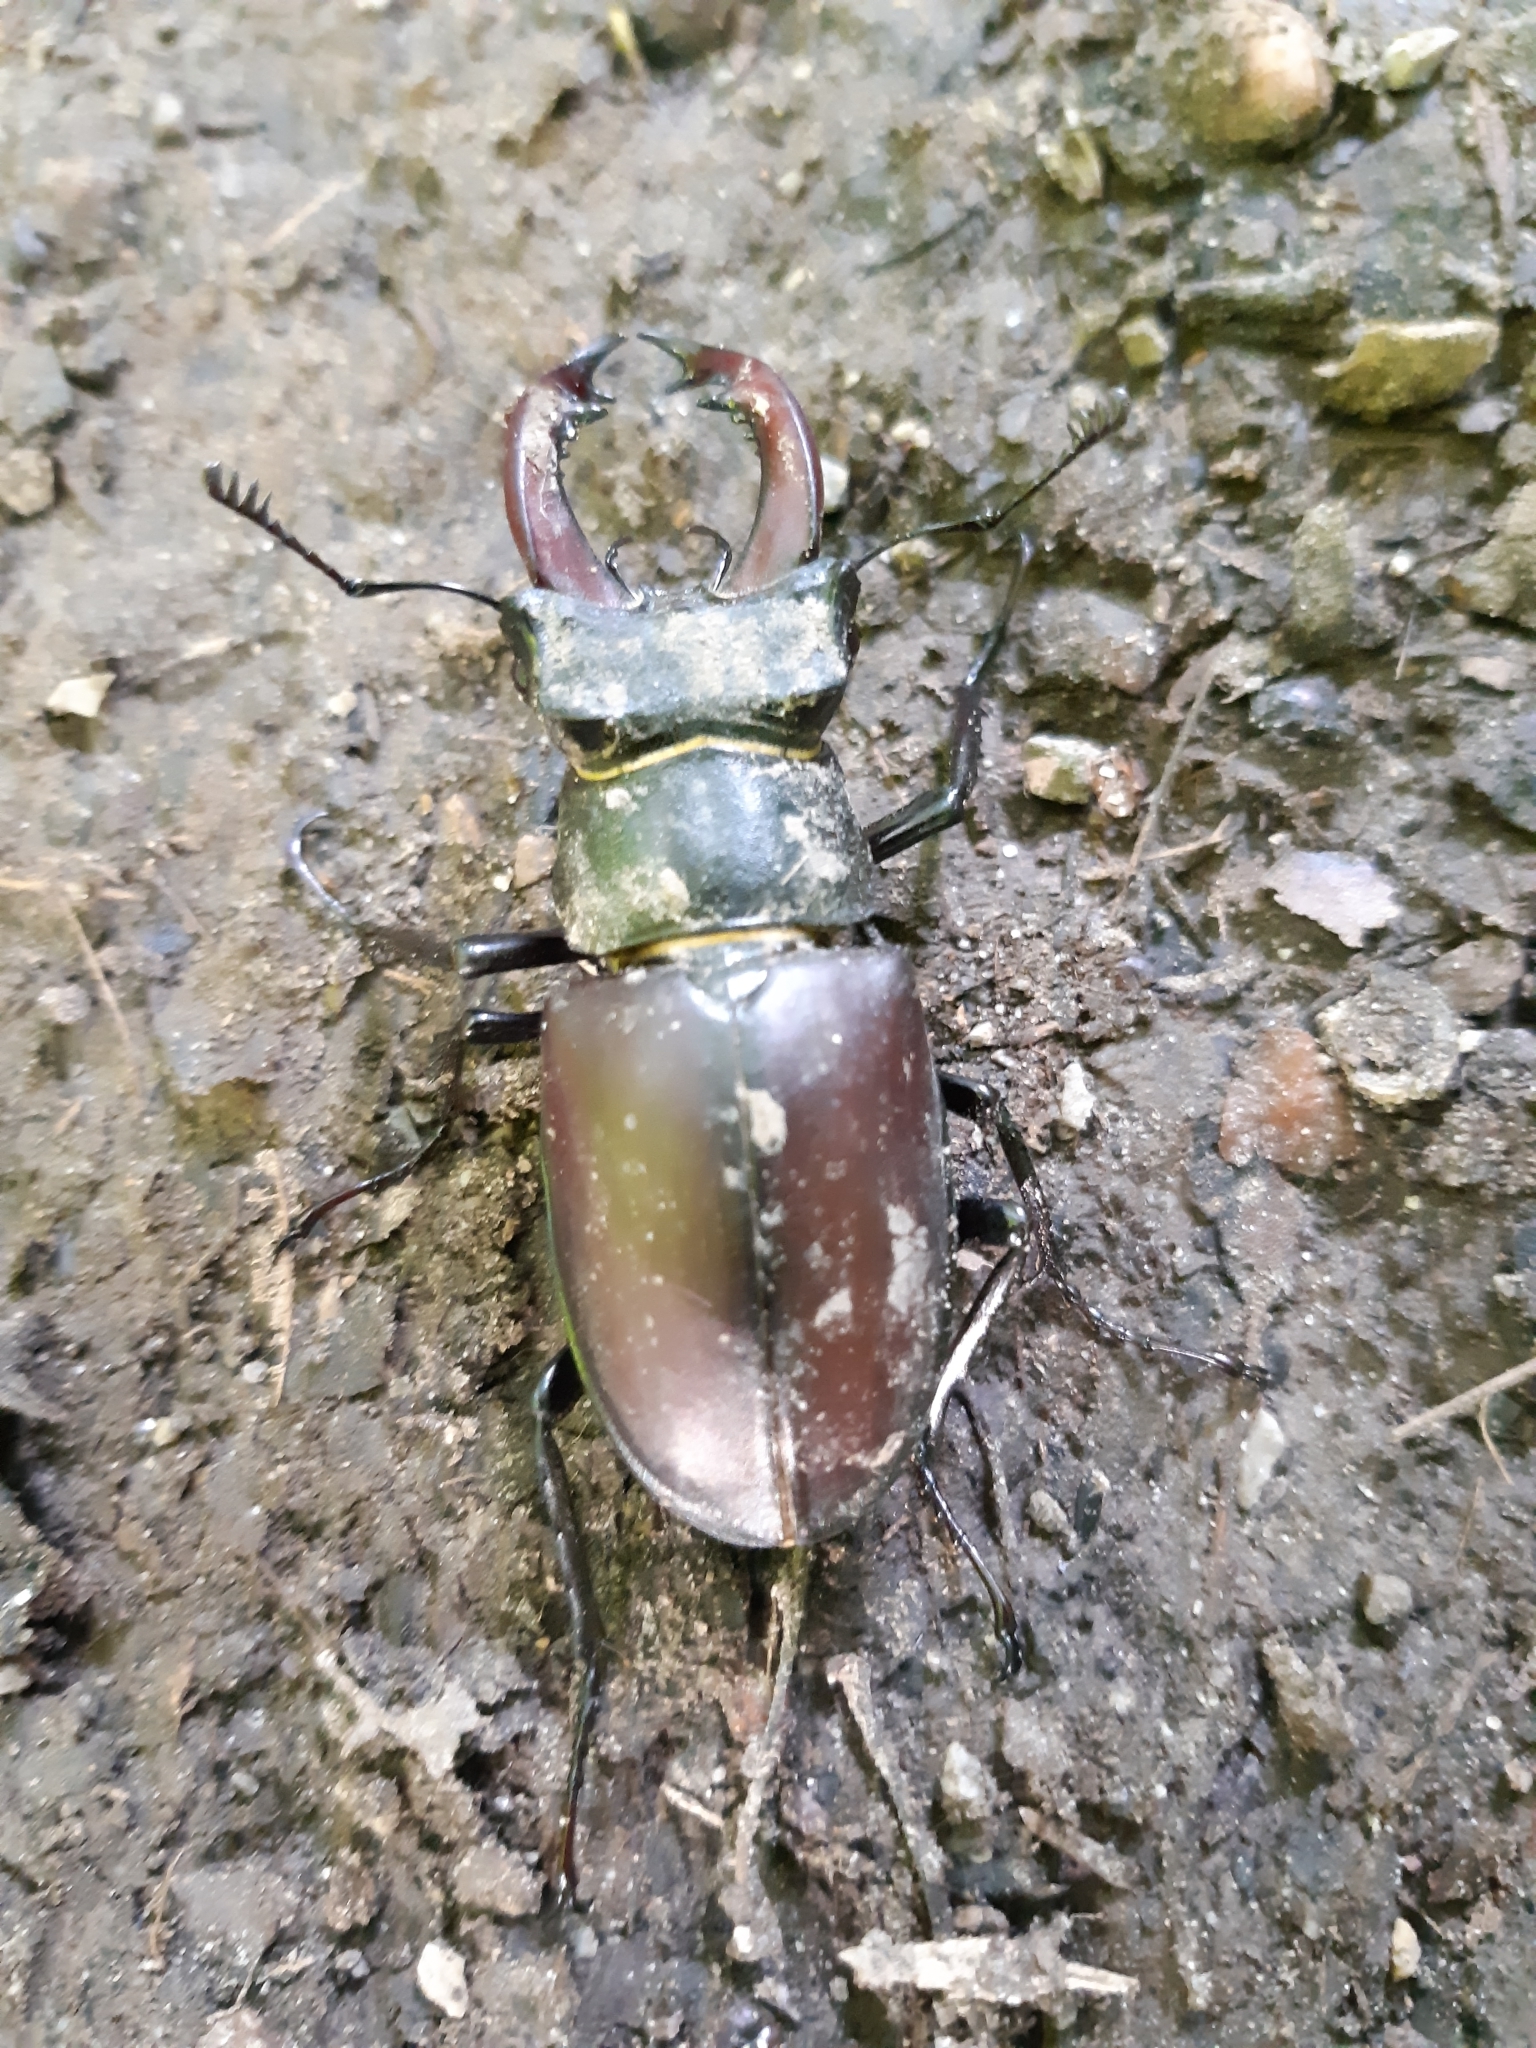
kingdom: Animalia
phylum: Arthropoda
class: Insecta
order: Coleoptera
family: Lucanidae
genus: Lucanus
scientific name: Lucanus cervus
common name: Stag beetle
